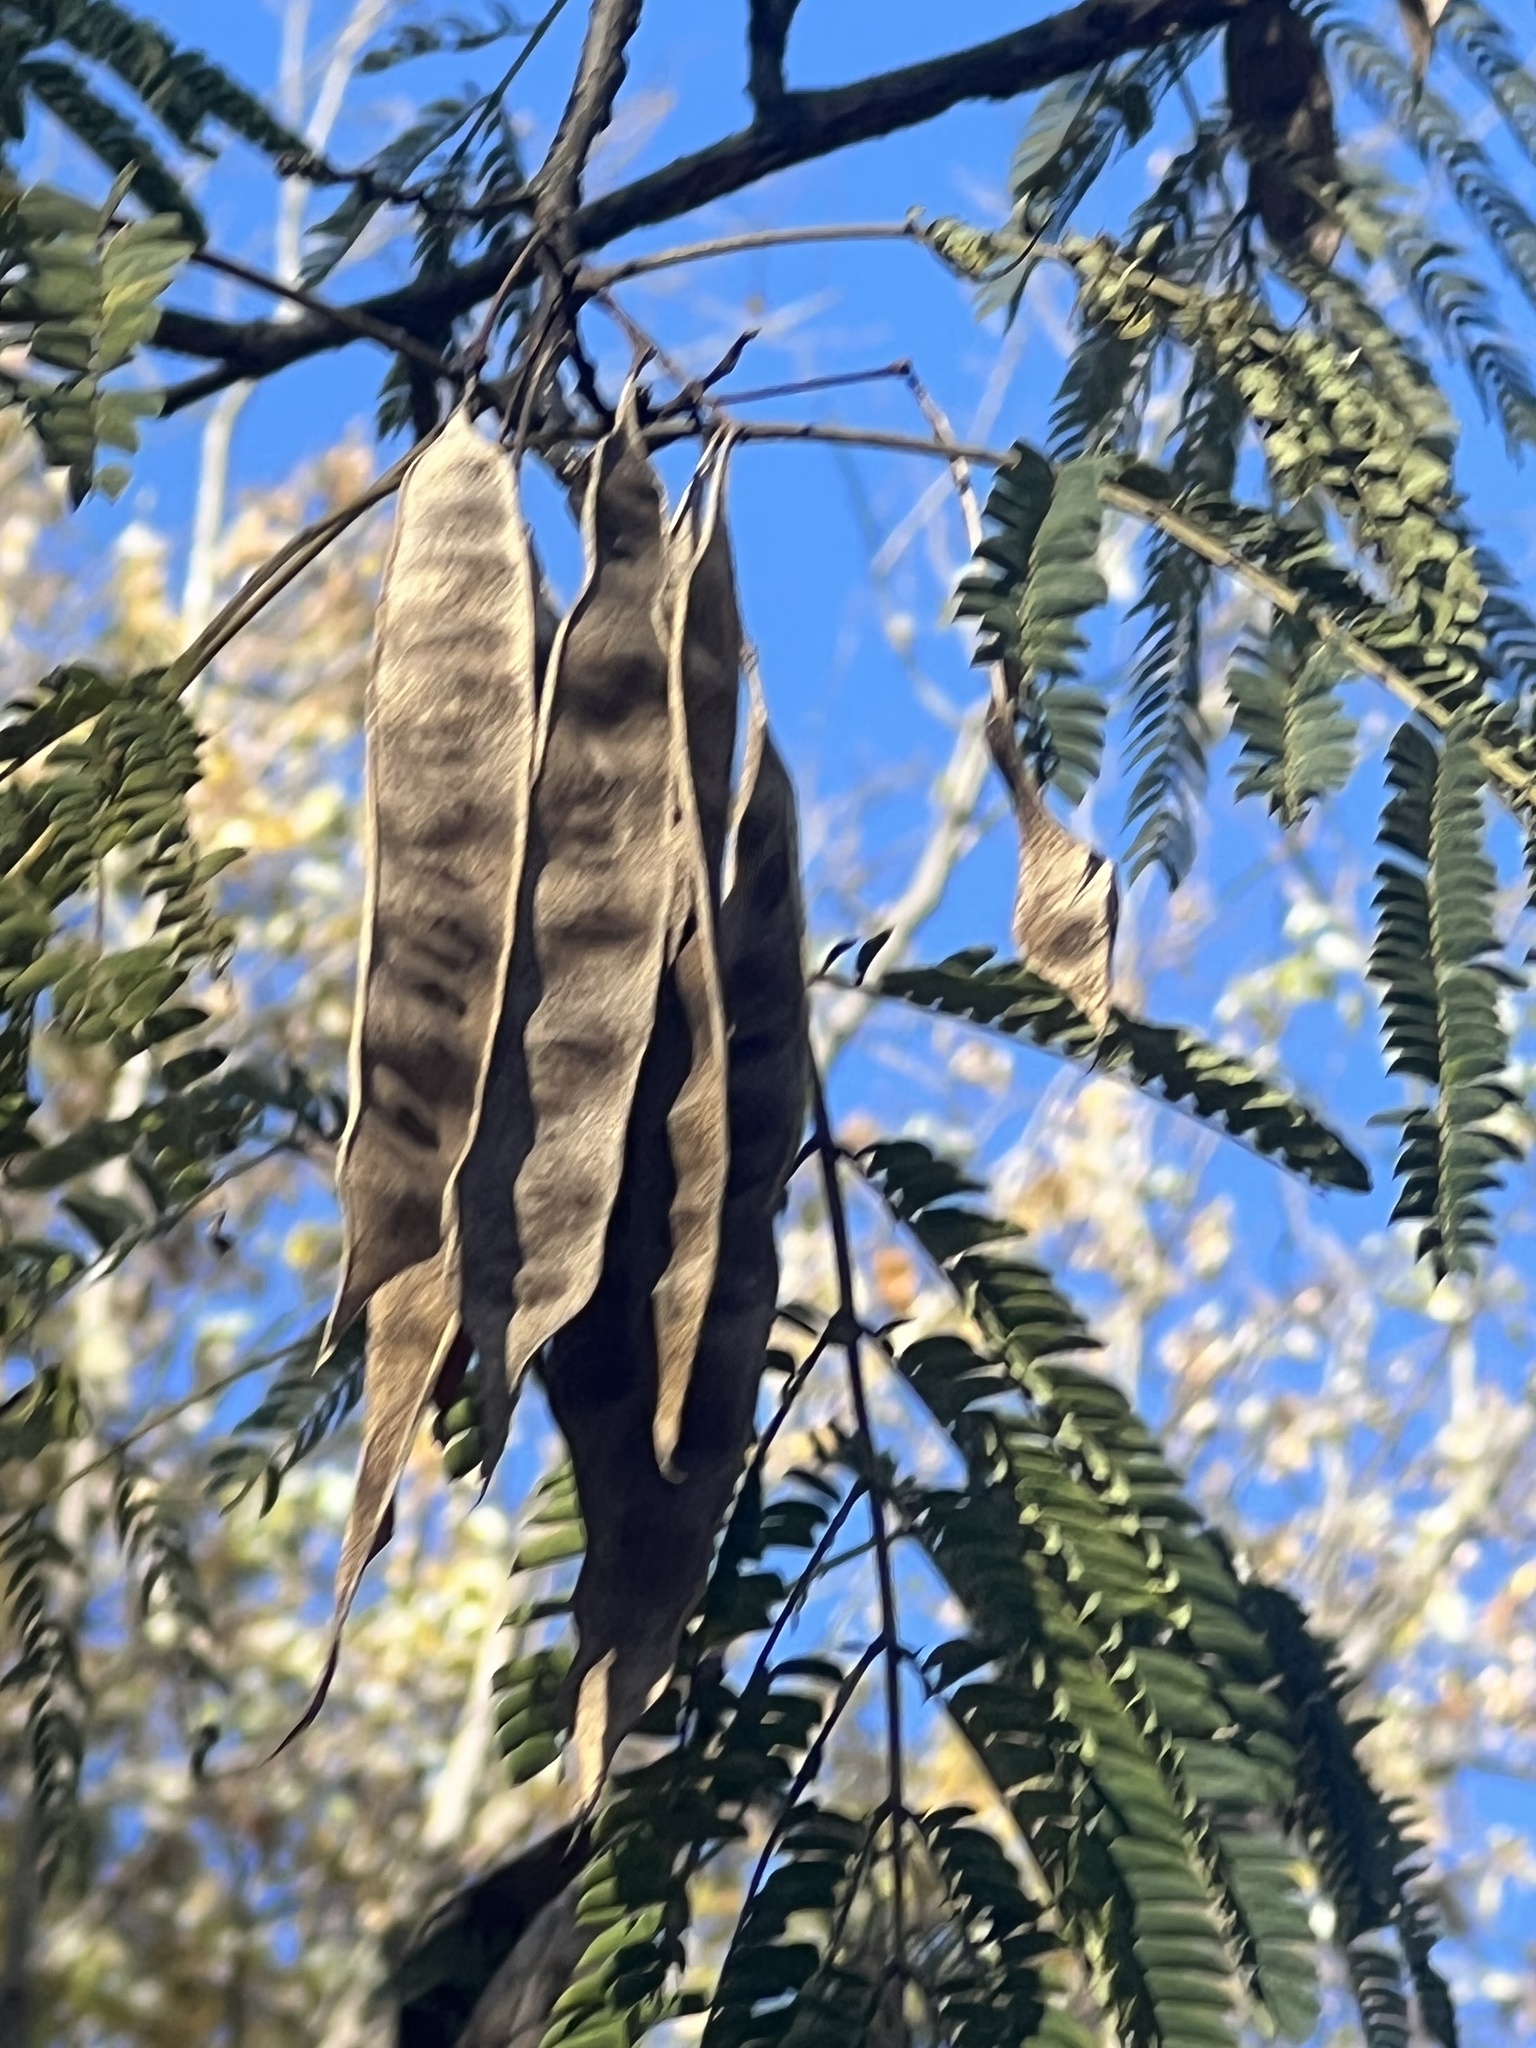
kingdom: Plantae
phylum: Tracheophyta
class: Magnoliopsida
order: Fabales
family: Fabaceae
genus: Albizia
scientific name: Albizia julibrissin
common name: Silktree
